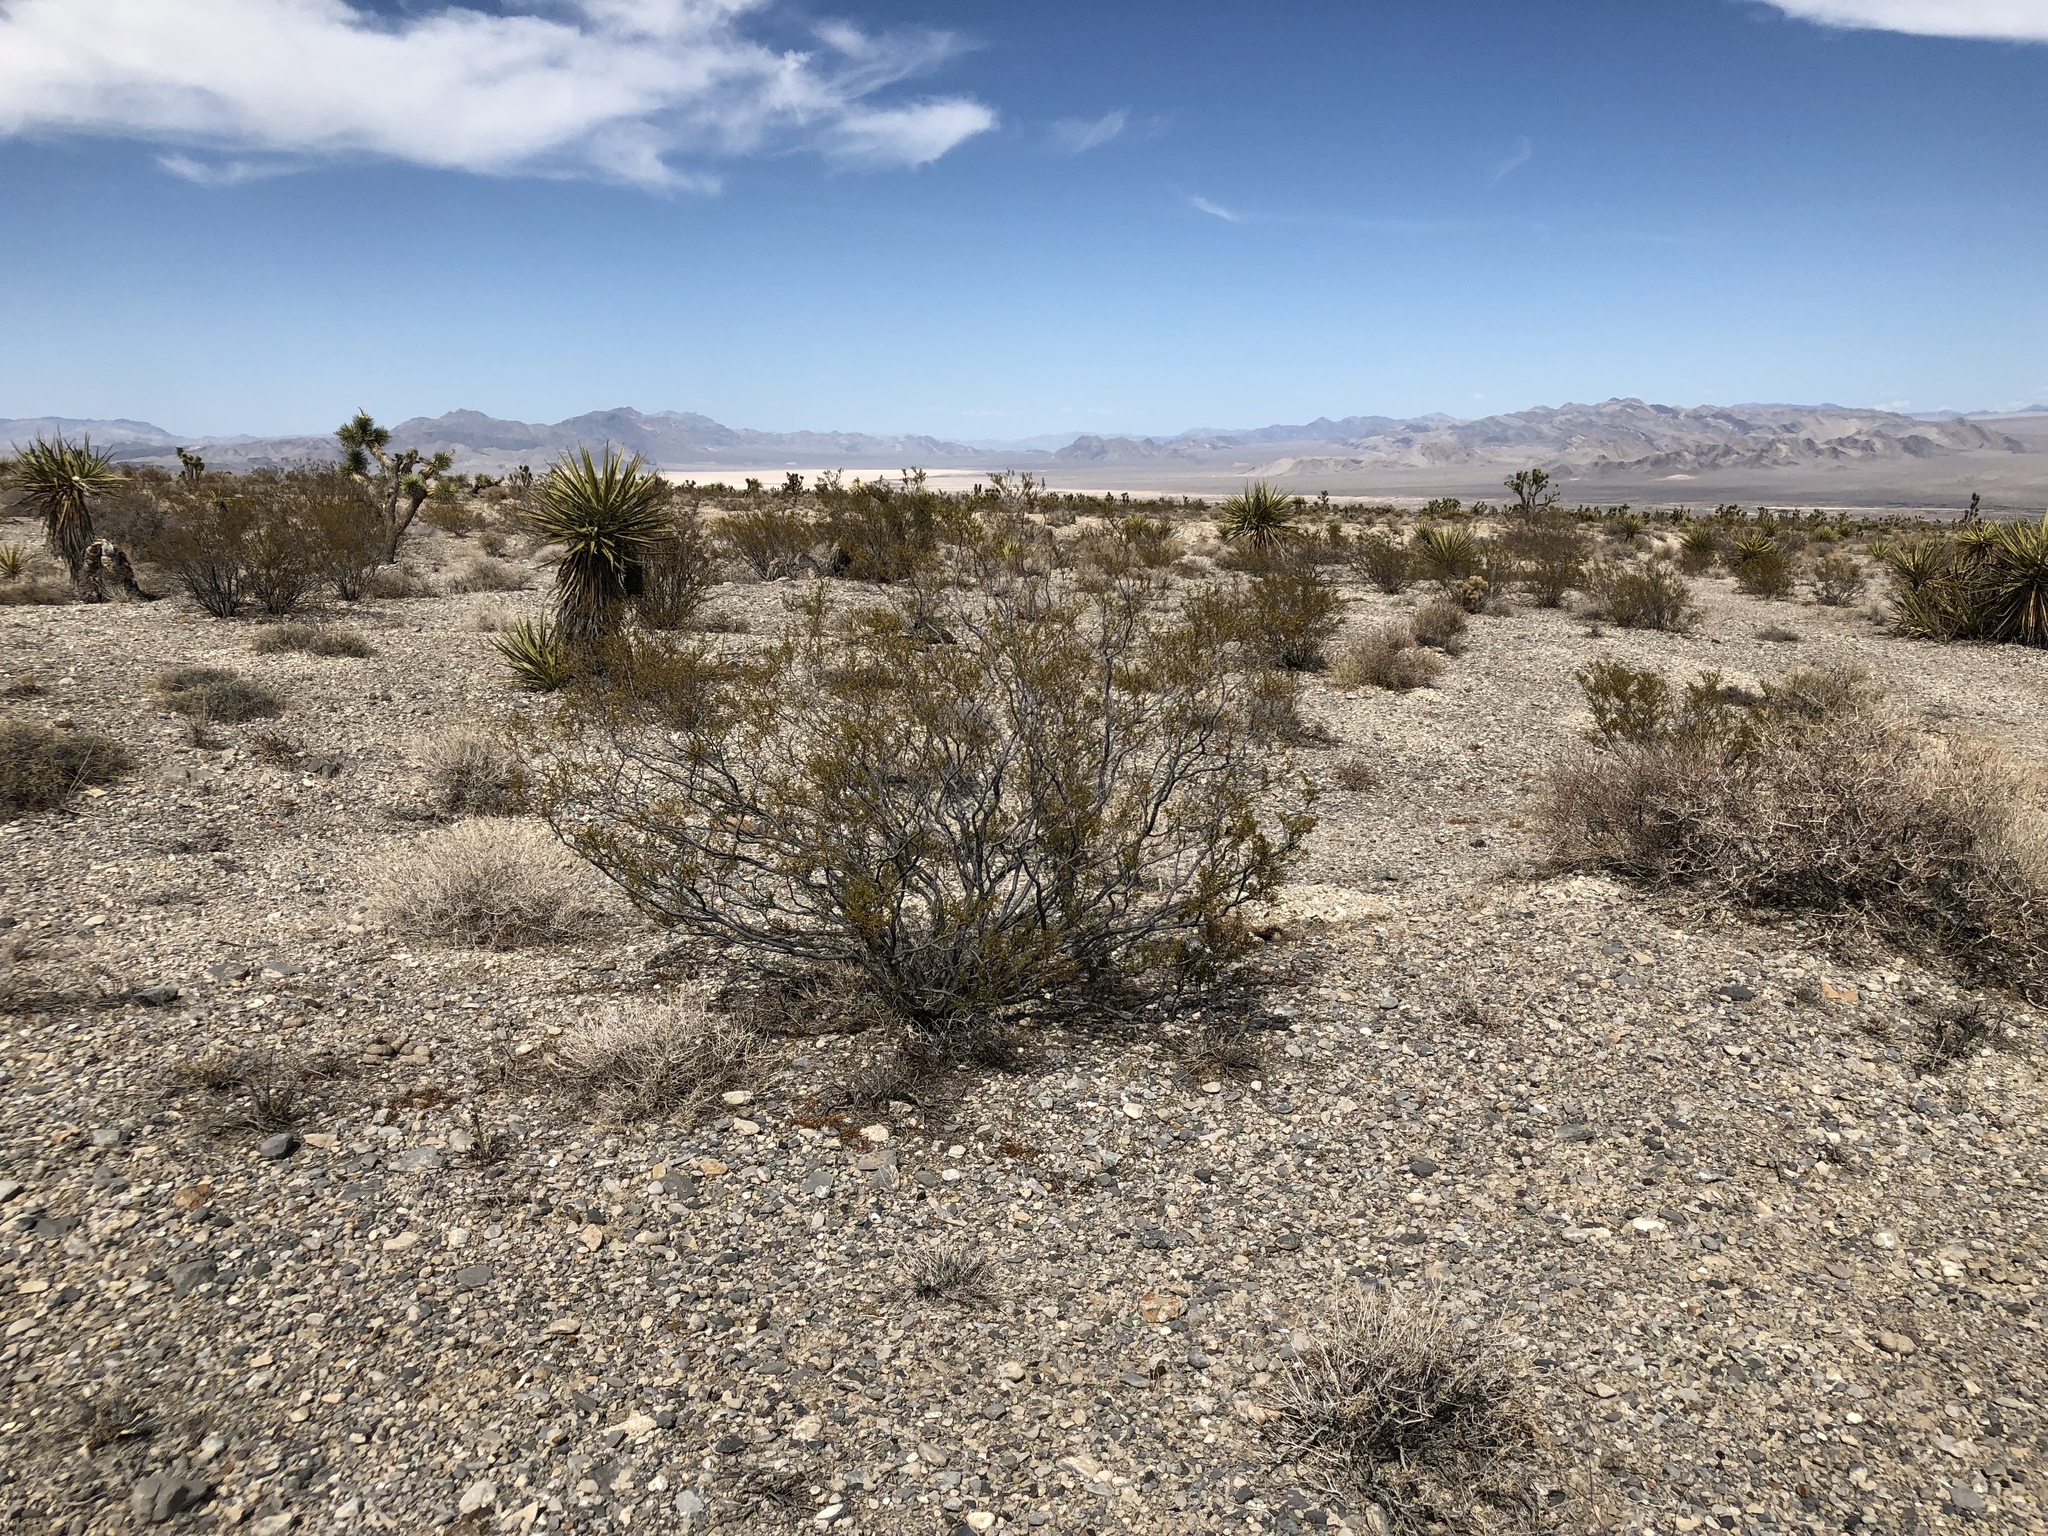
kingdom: Plantae
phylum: Tracheophyta
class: Magnoliopsida
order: Zygophyllales
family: Zygophyllaceae
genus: Larrea
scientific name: Larrea tridentata
